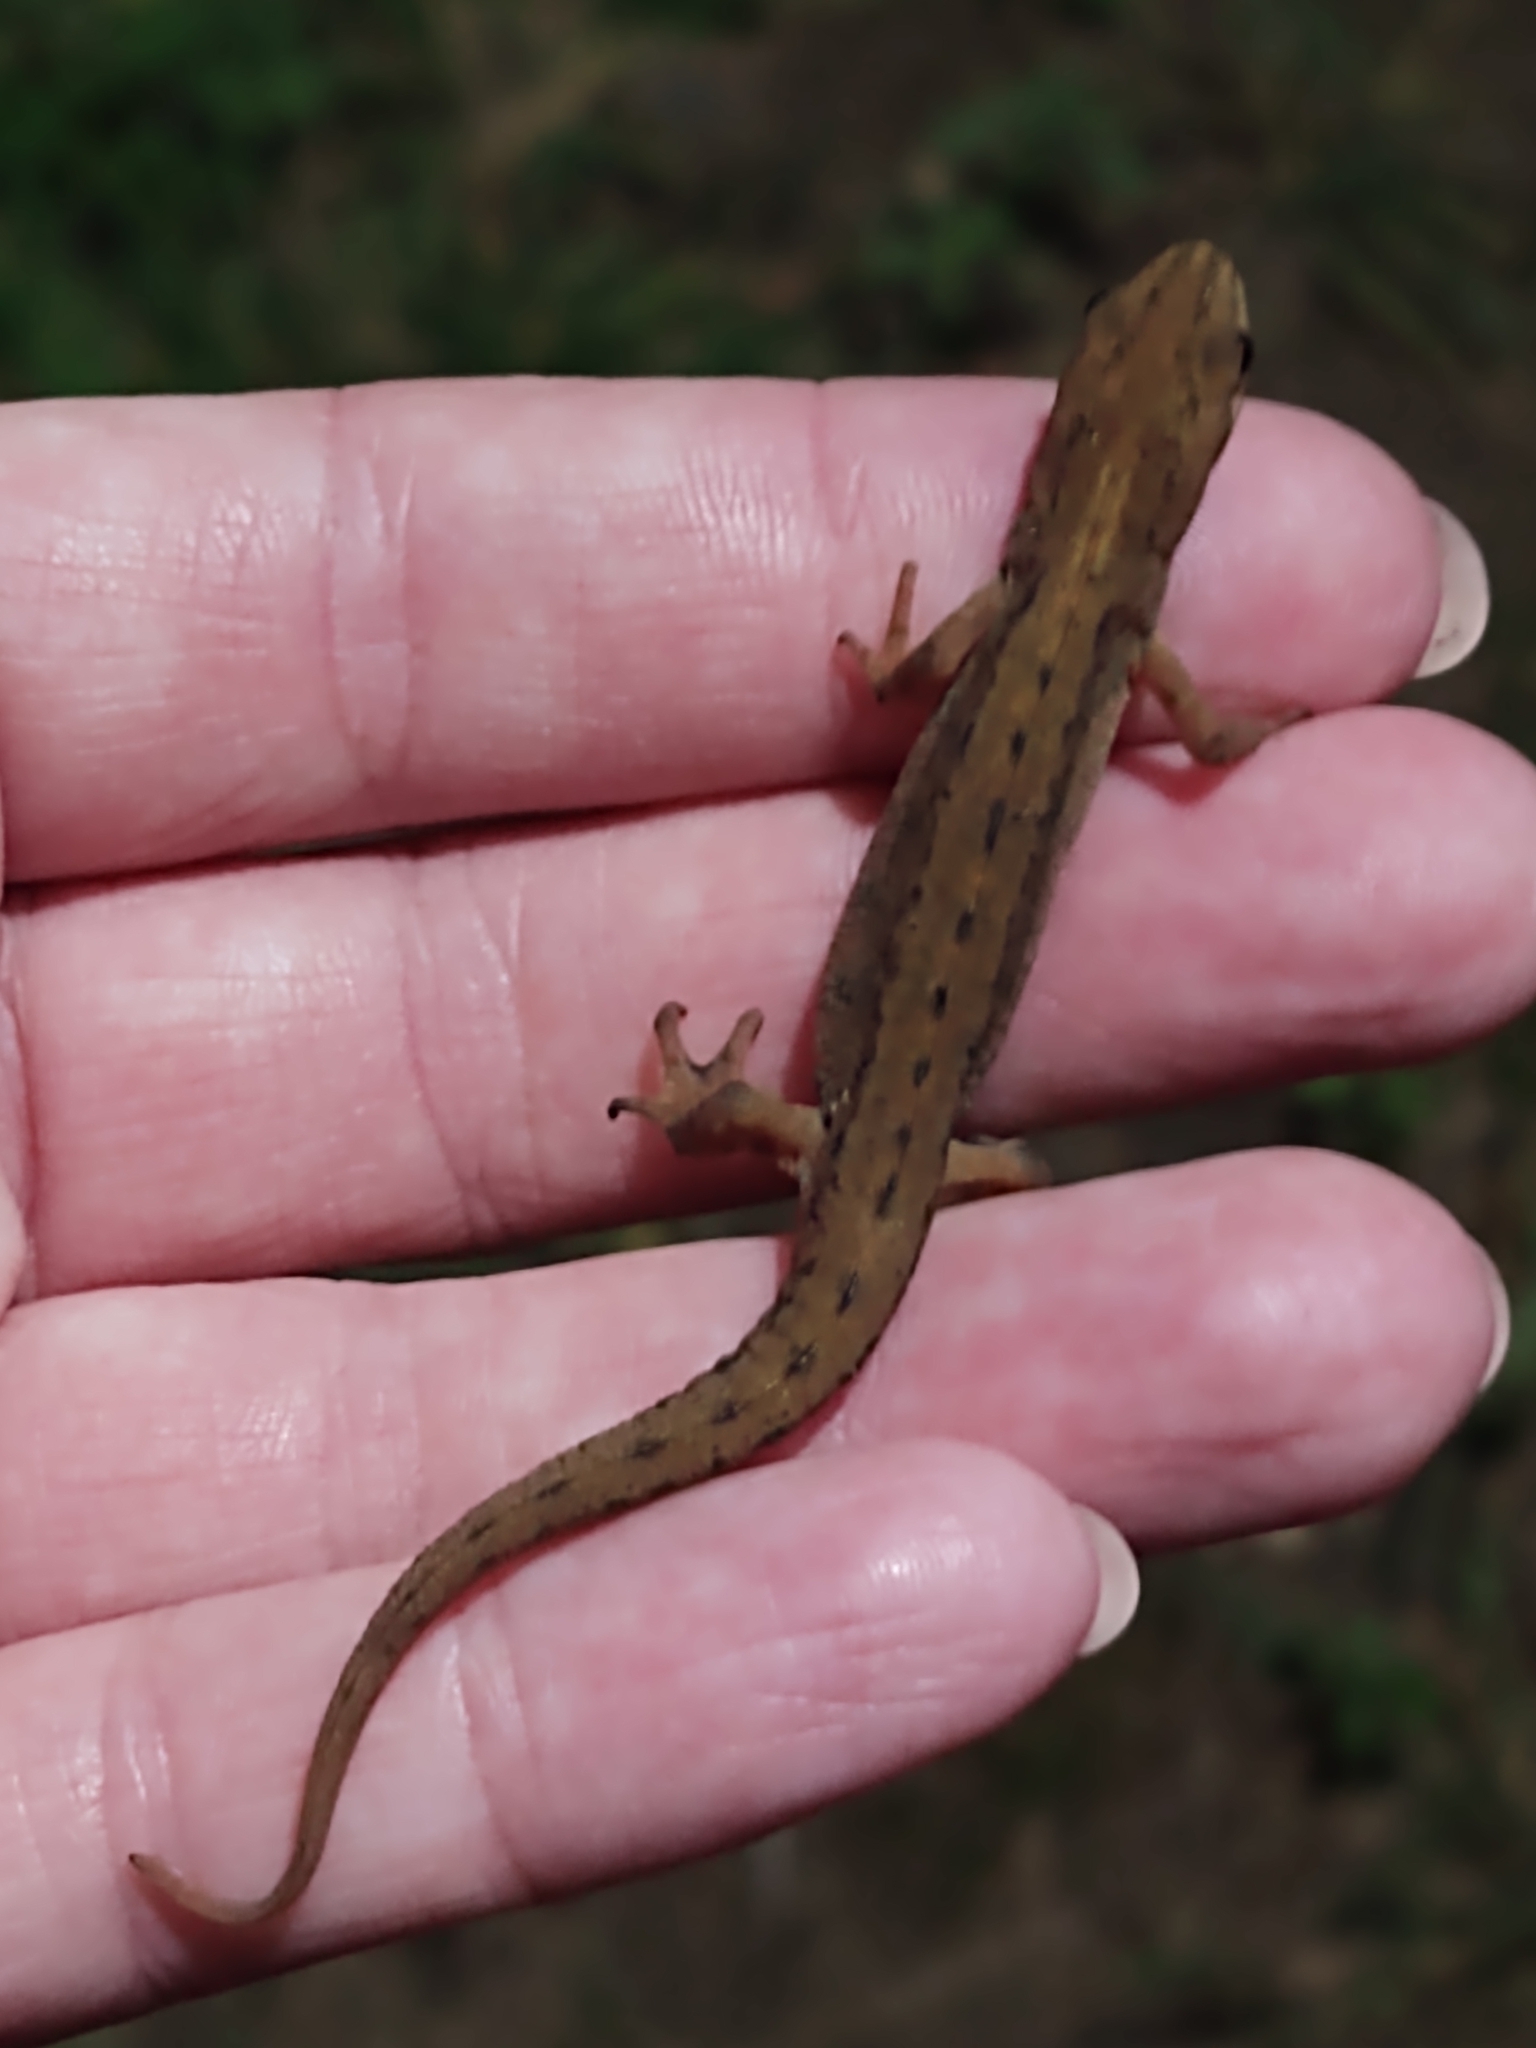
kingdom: Animalia
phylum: Chordata
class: Amphibia
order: Caudata
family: Salamandridae
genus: Lissotriton
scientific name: Lissotriton vulgaris
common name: Smooth newt
